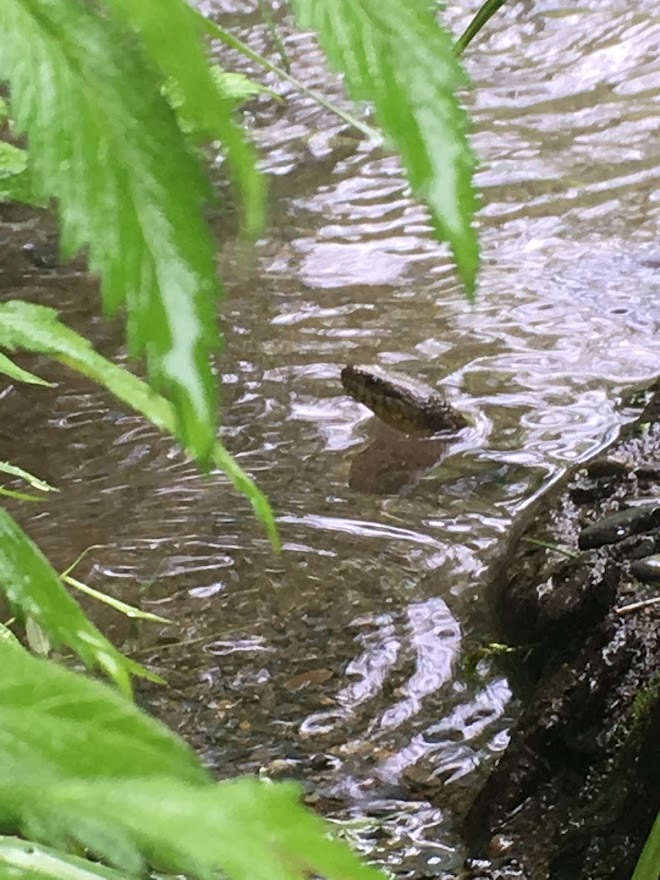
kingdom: Animalia
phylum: Chordata
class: Squamata
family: Colubridae
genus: Nerodia
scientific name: Nerodia sipedon
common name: Northern water snake
